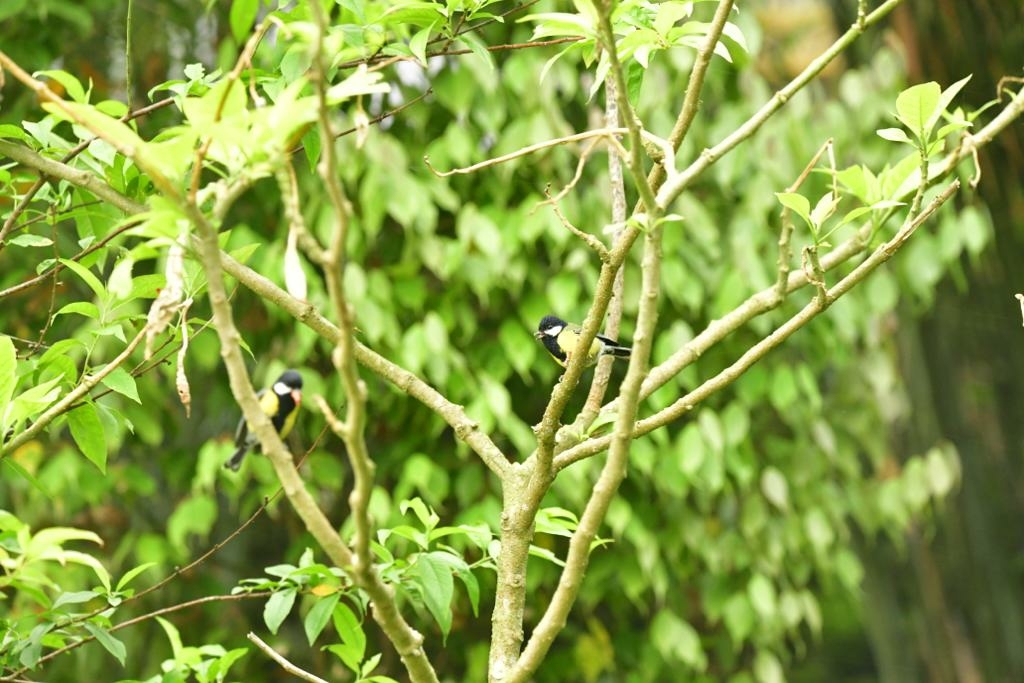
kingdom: Animalia
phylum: Chordata
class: Aves
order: Passeriformes
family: Paridae
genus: Parus
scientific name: Parus monticolus
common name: Green-backed tit
